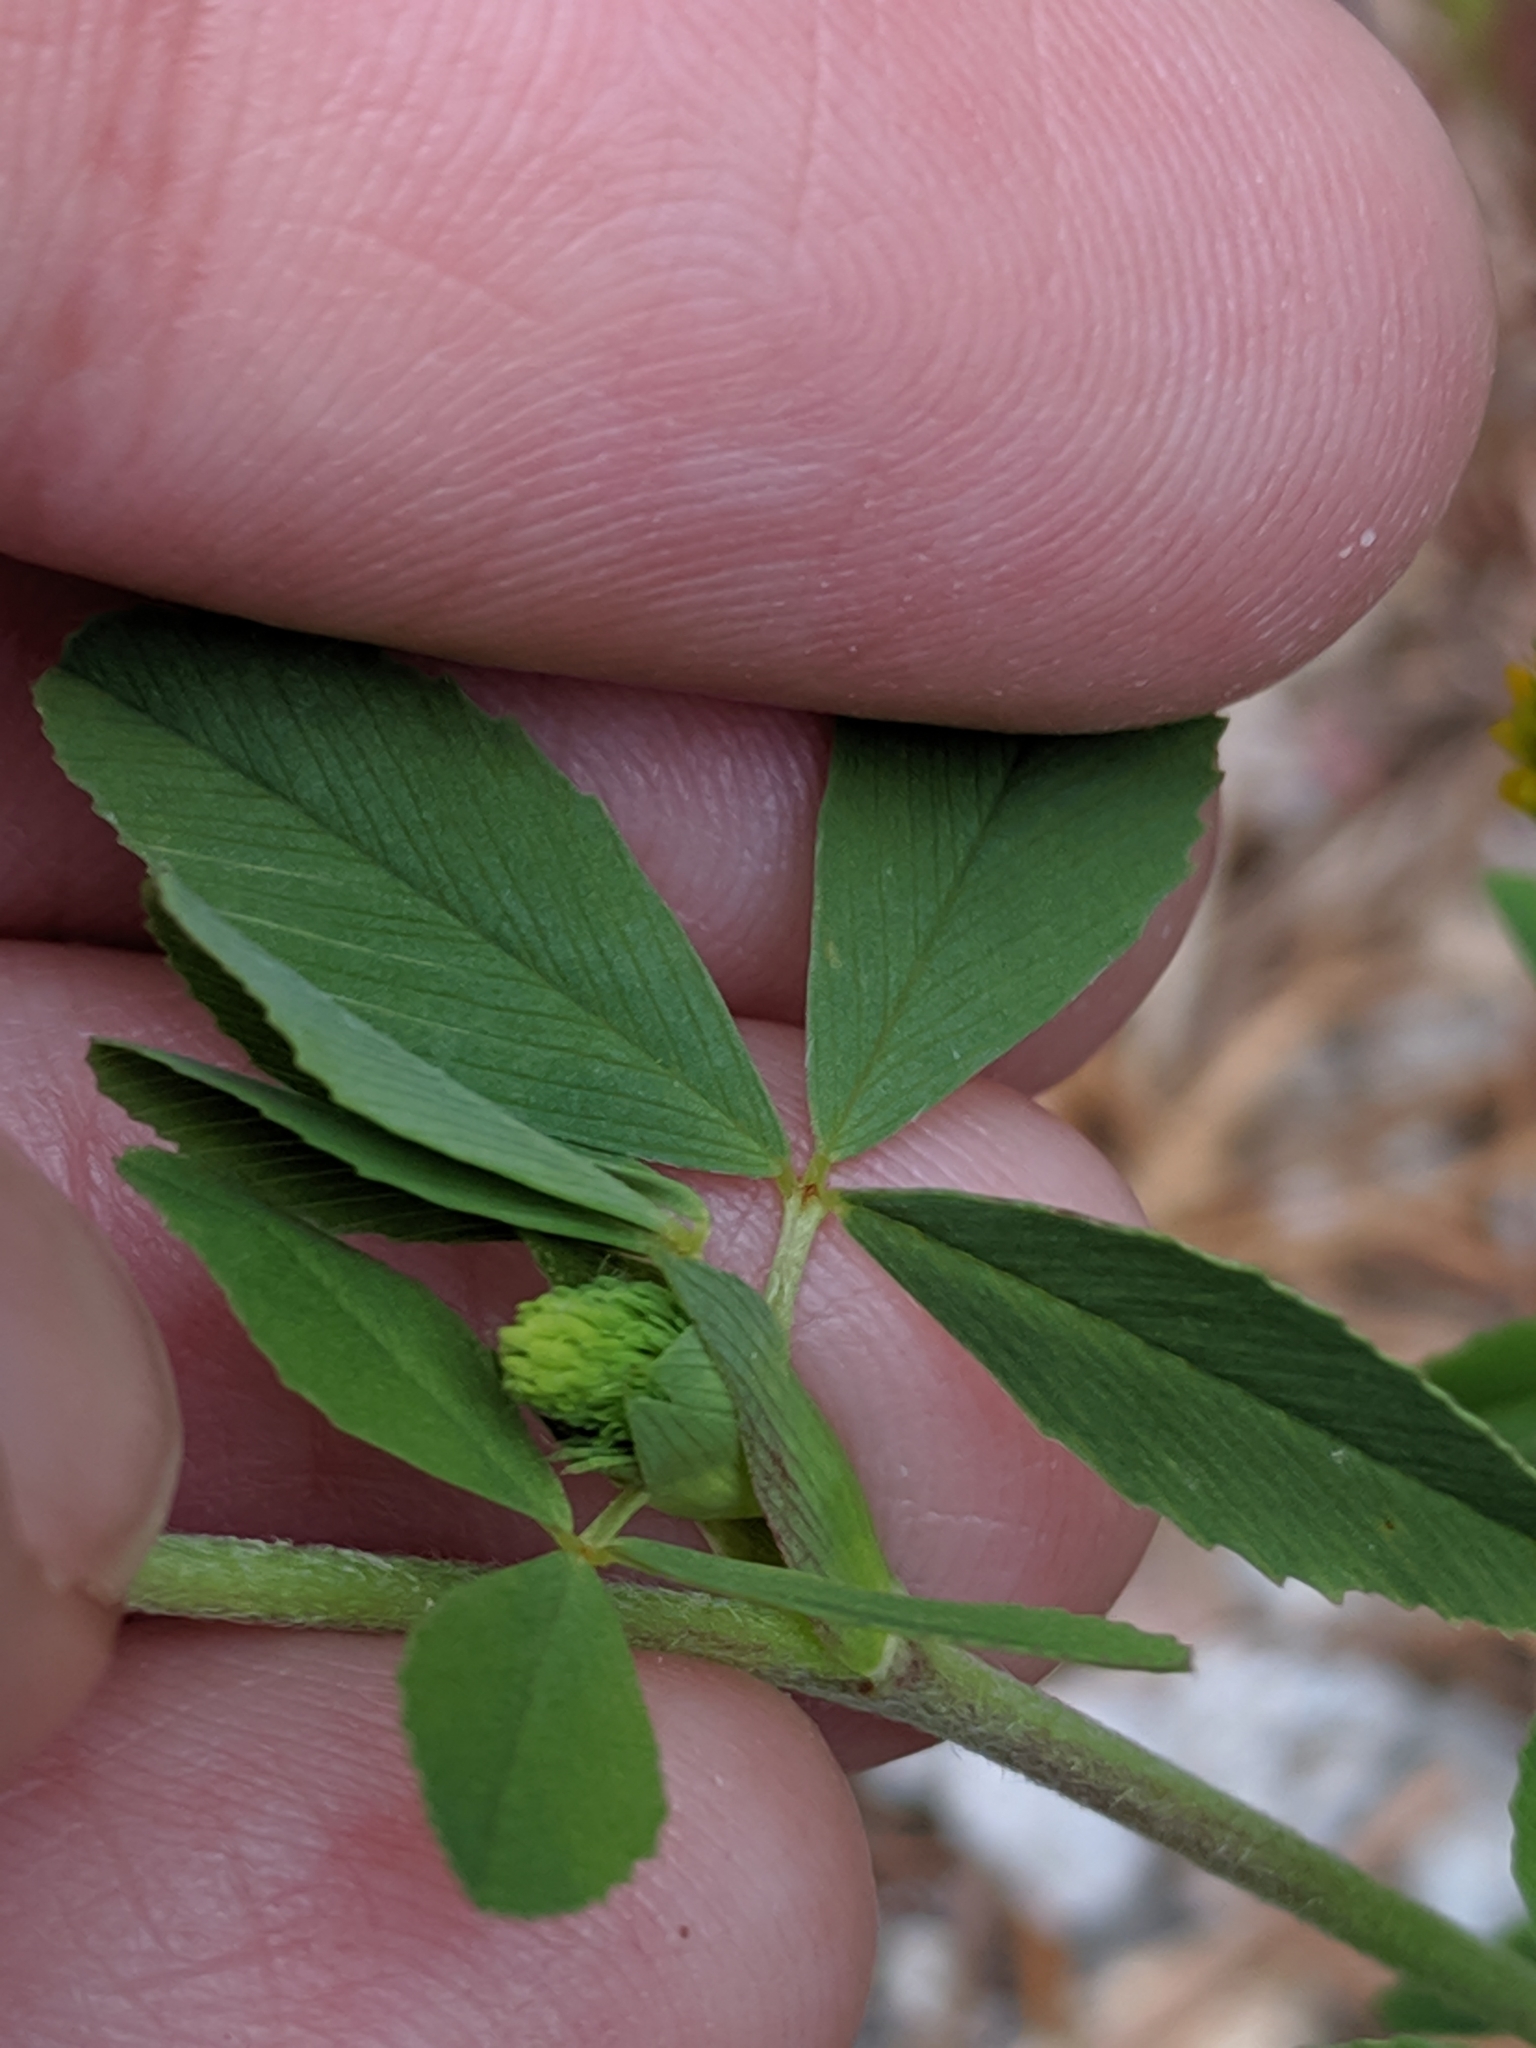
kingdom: Plantae
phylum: Tracheophyta
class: Magnoliopsida
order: Fabales
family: Fabaceae
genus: Trifolium
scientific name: Trifolium aureum
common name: Golden clover
